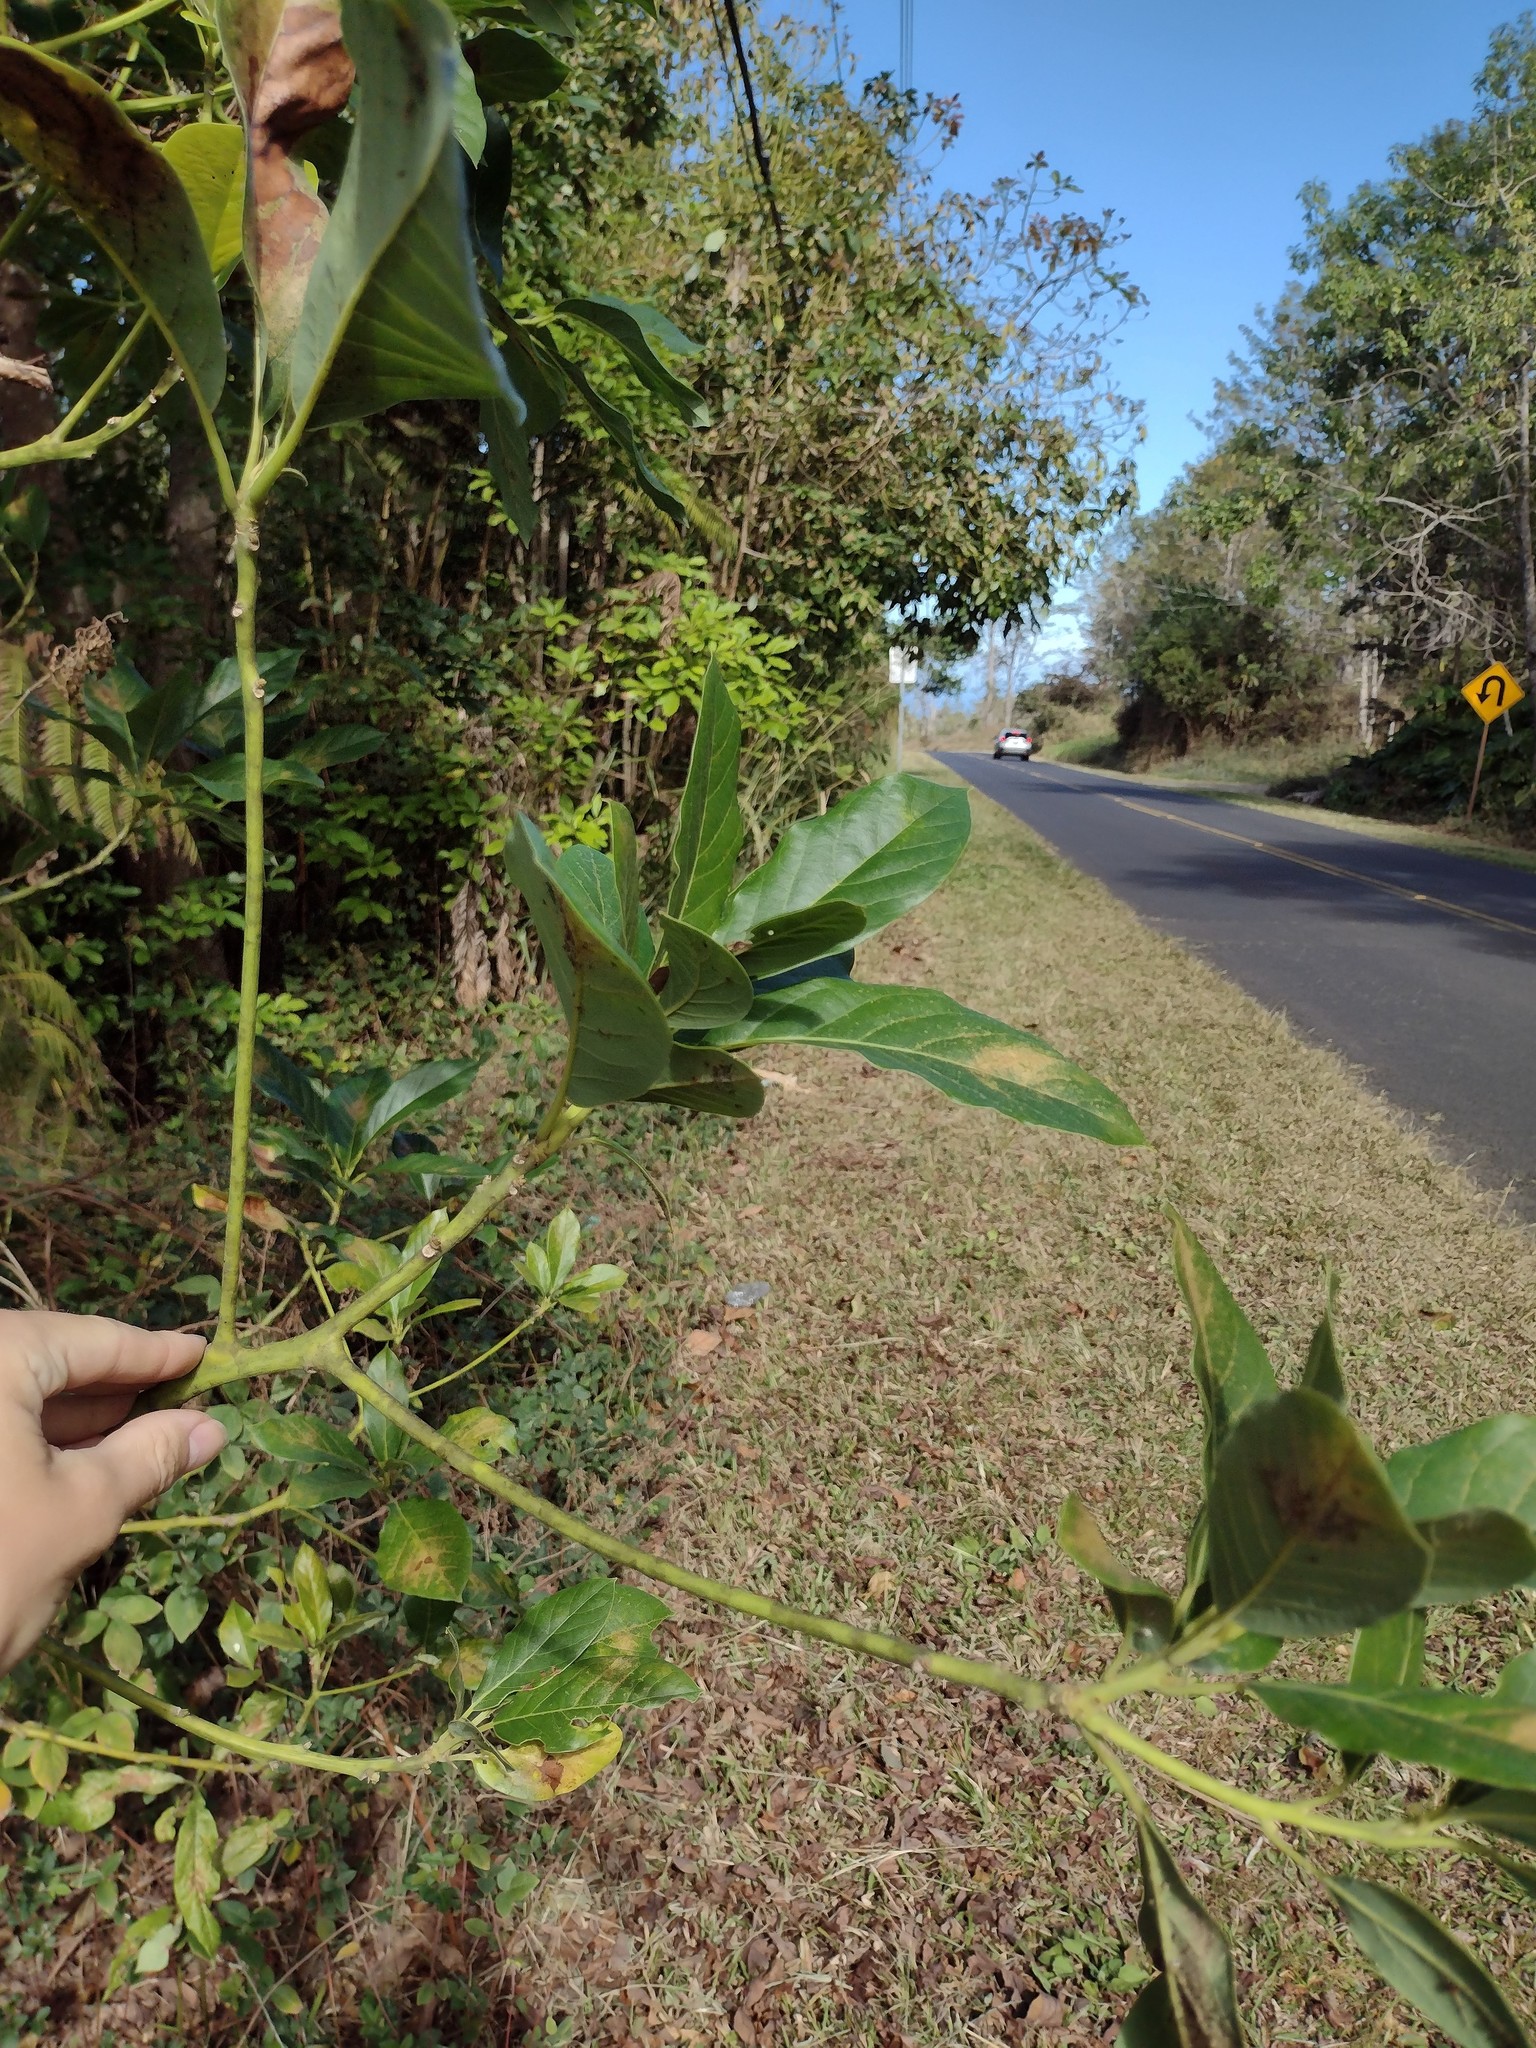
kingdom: Plantae
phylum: Tracheophyta
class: Magnoliopsida
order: Laurales
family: Lauraceae
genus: Persea
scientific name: Persea americana
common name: Avocado
